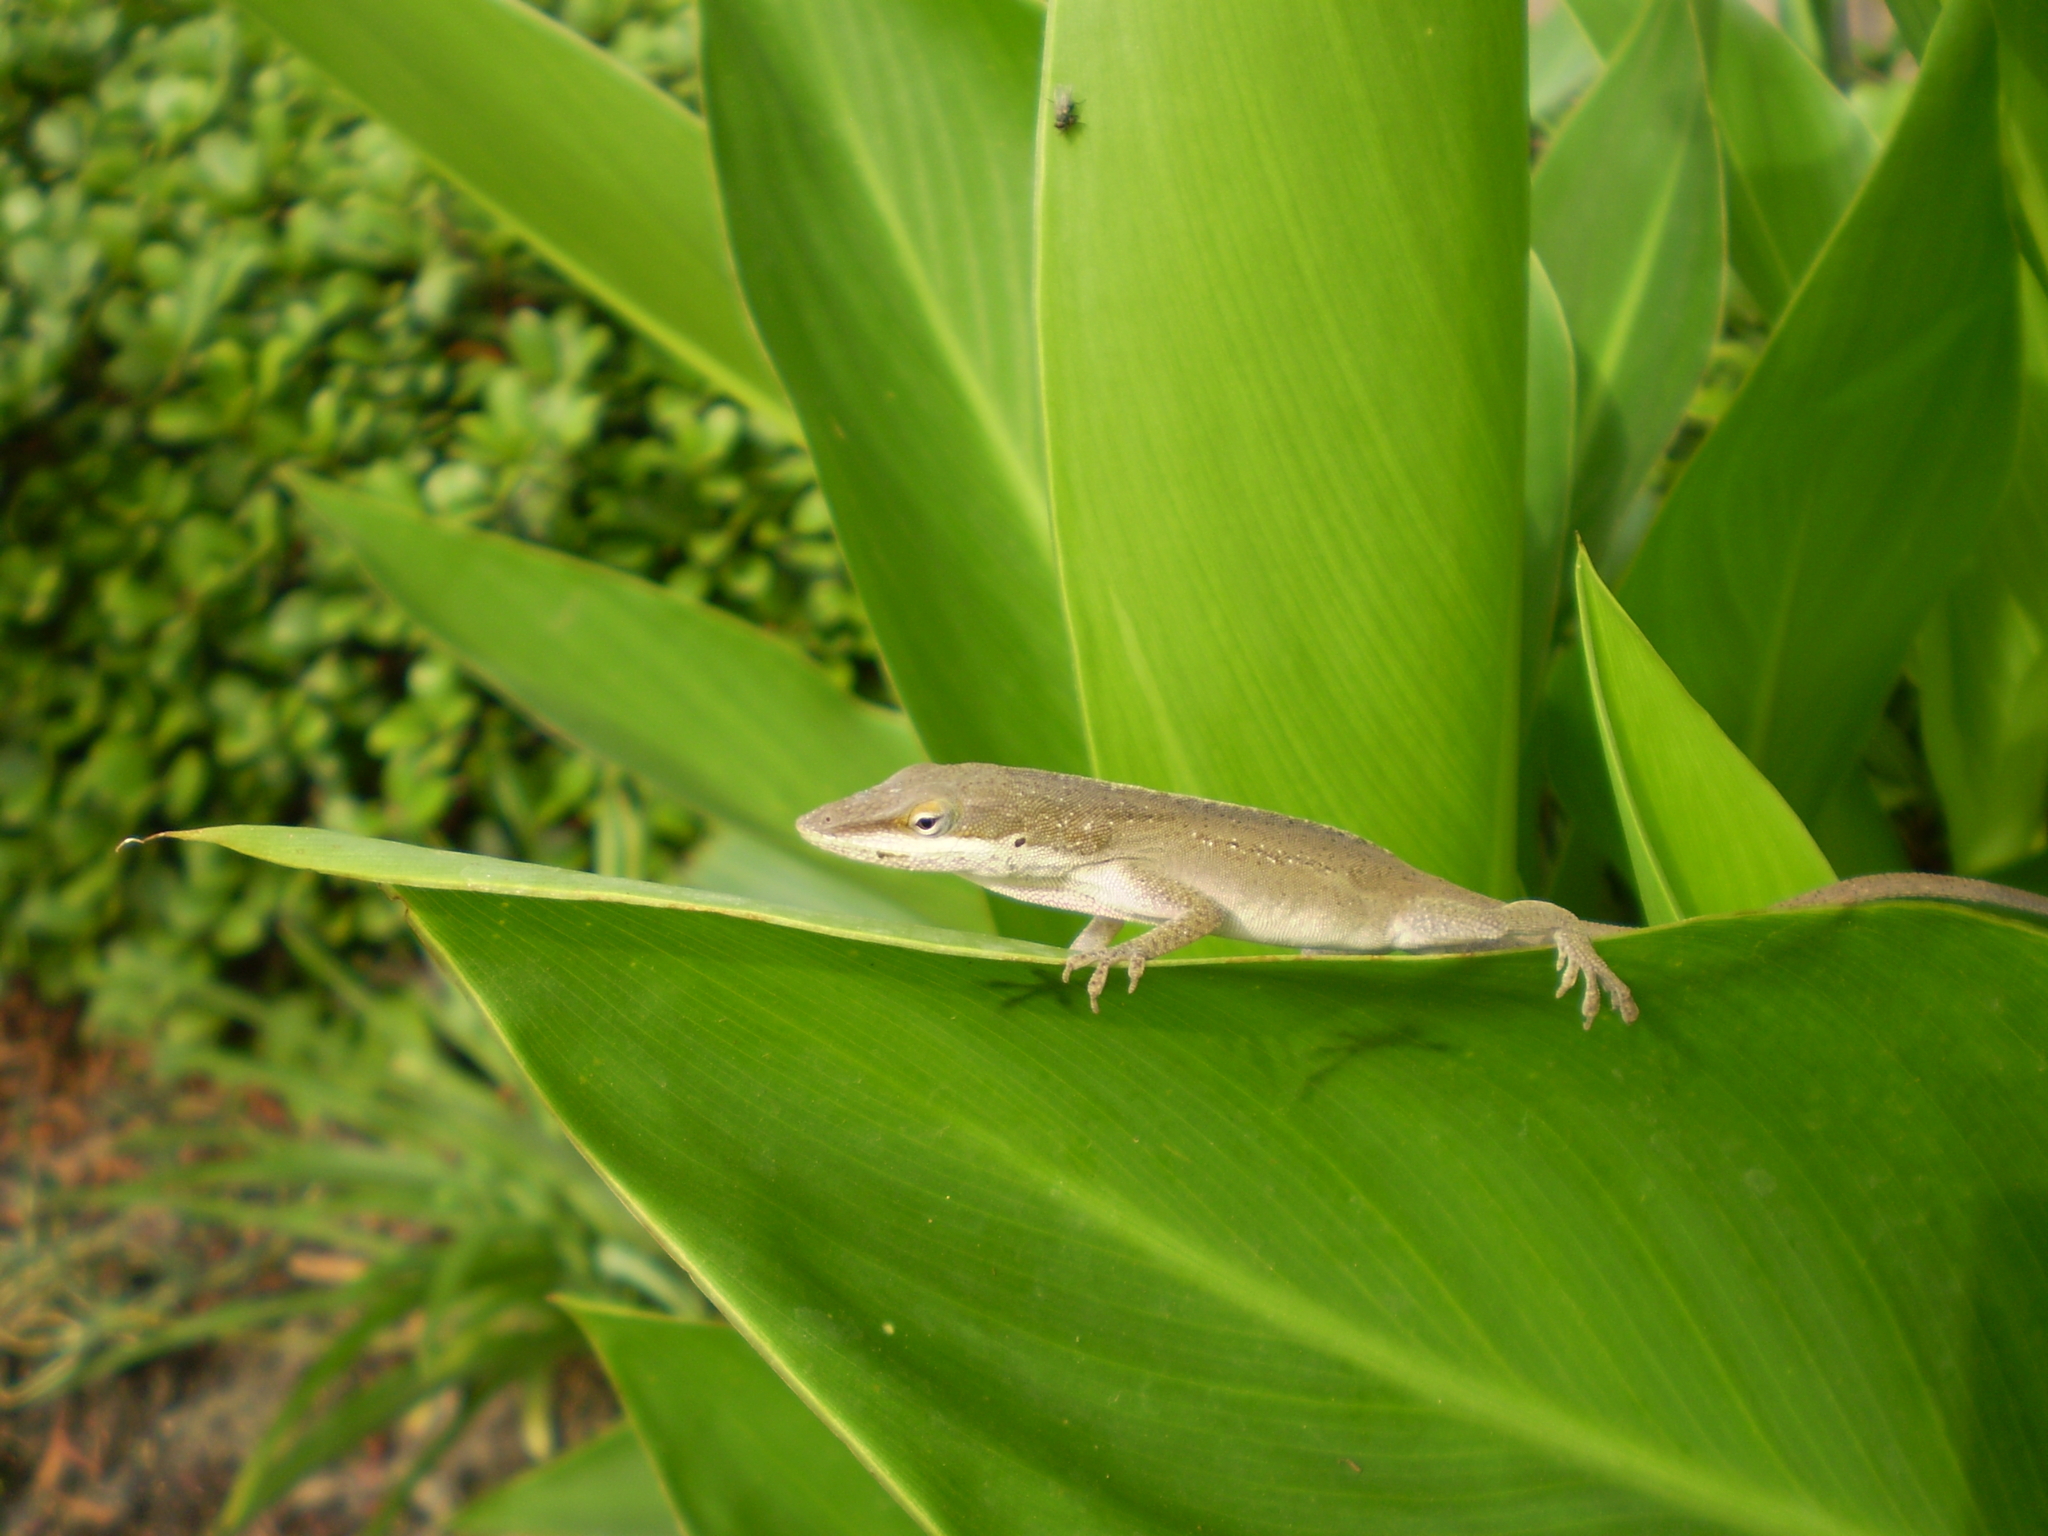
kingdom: Animalia
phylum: Chordata
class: Squamata
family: Dactyloidae
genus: Anolis
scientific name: Anolis carolinensis
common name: Green anole
